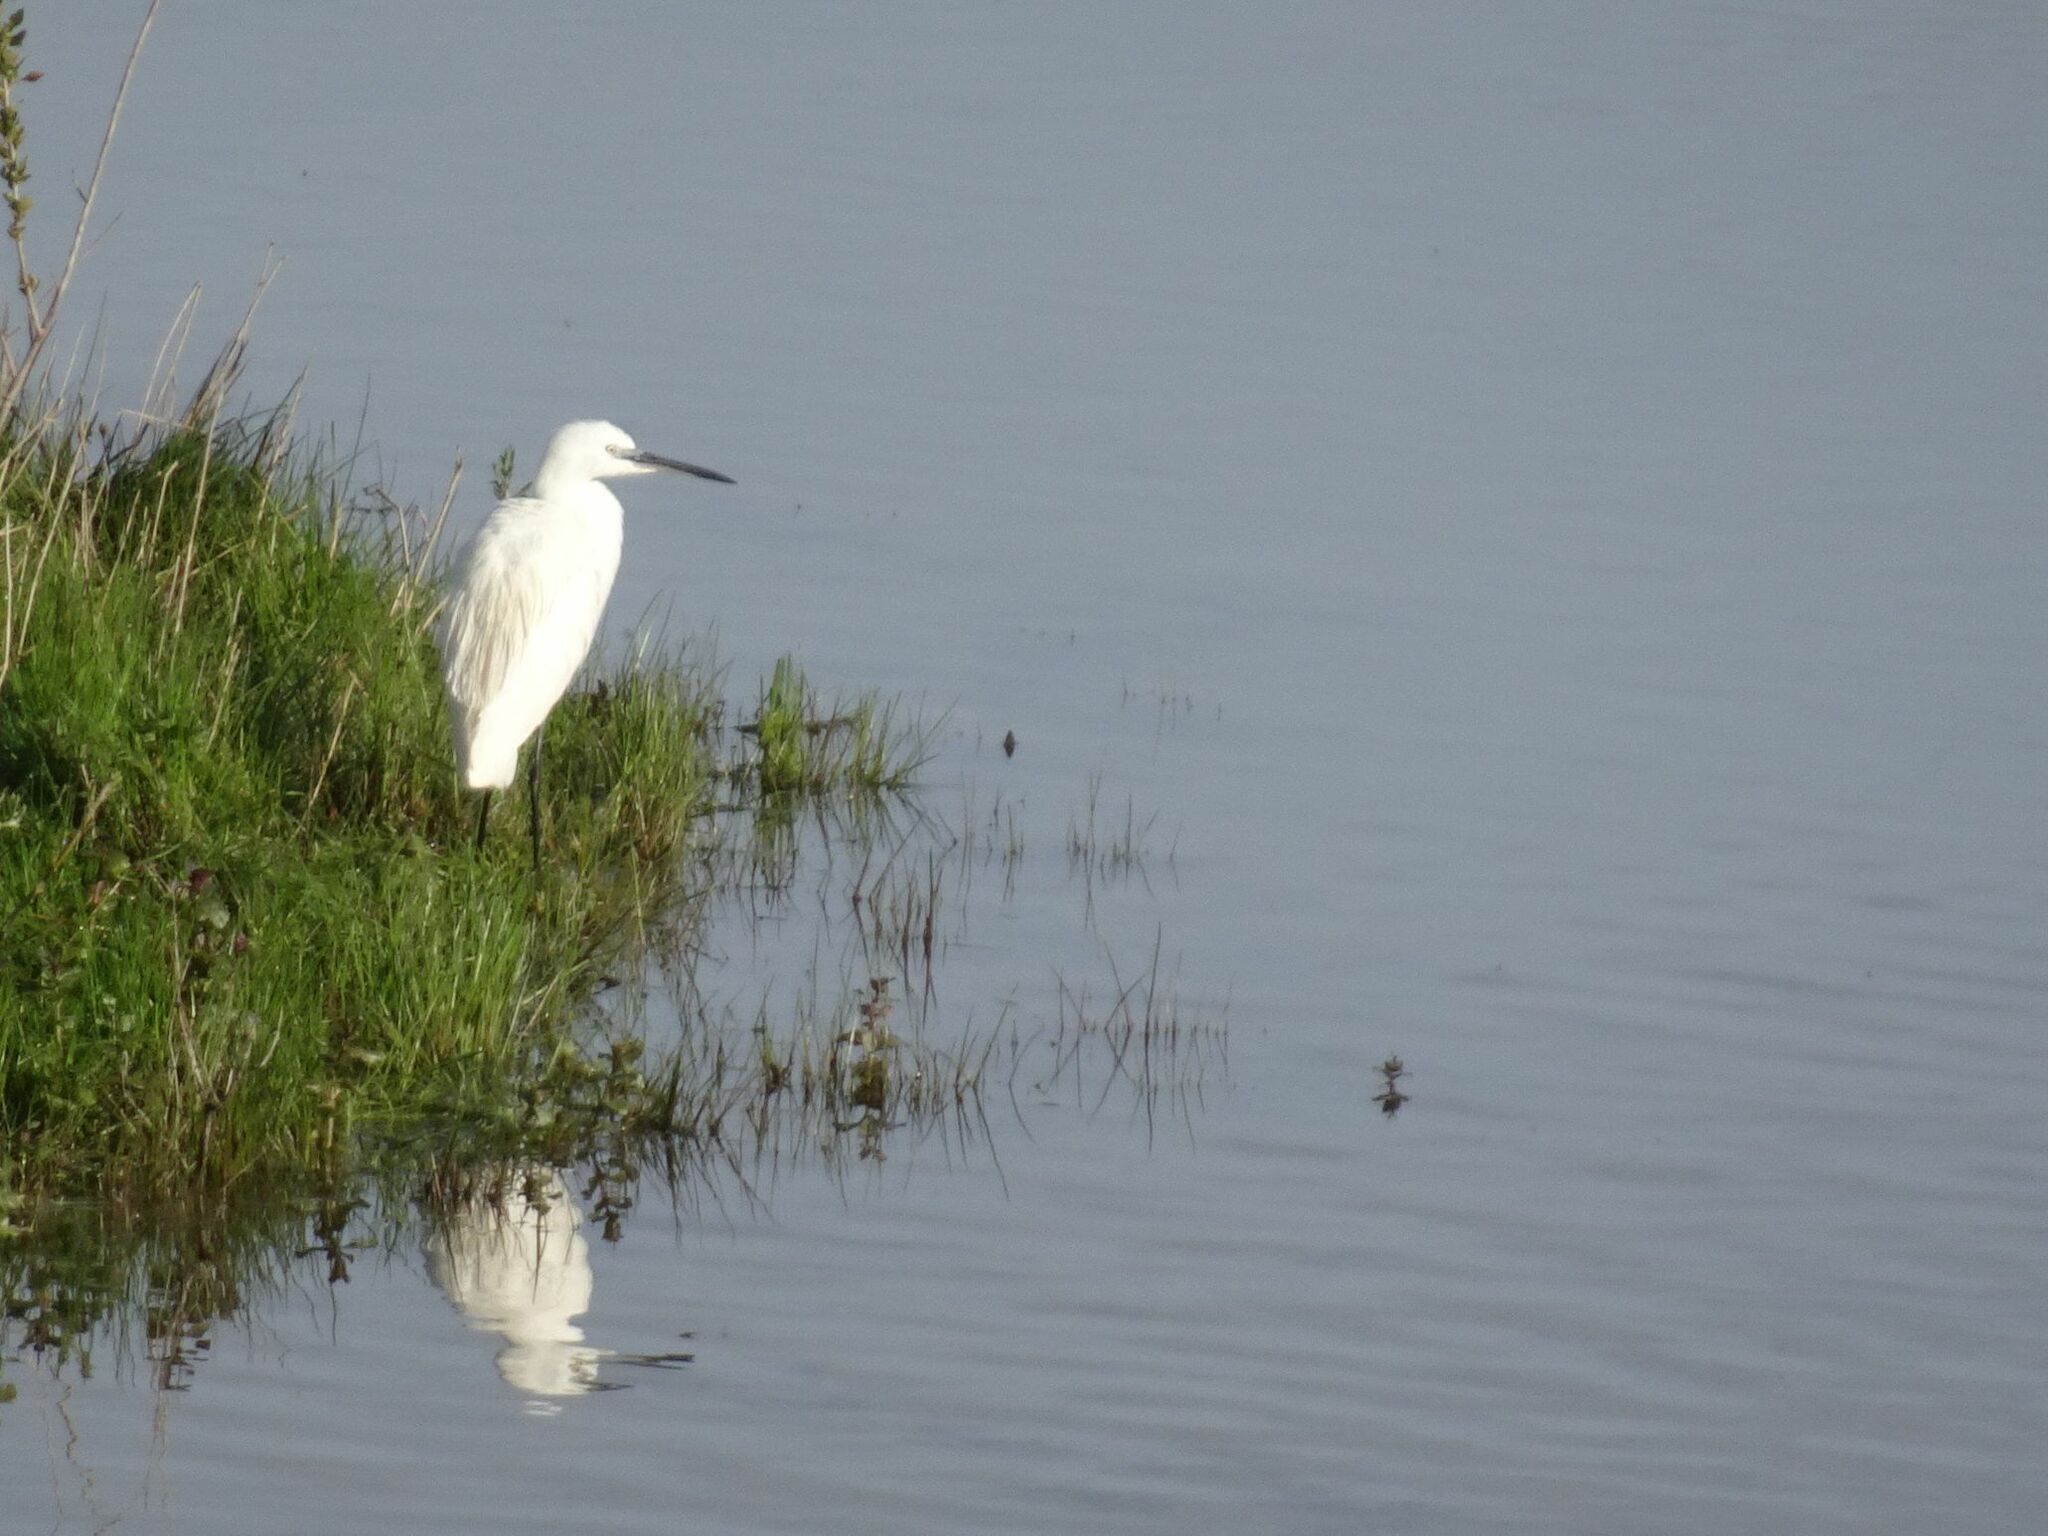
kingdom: Animalia
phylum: Chordata
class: Aves
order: Pelecaniformes
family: Ardeidae
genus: Egretta
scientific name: Egretta garzetta
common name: Little egret
